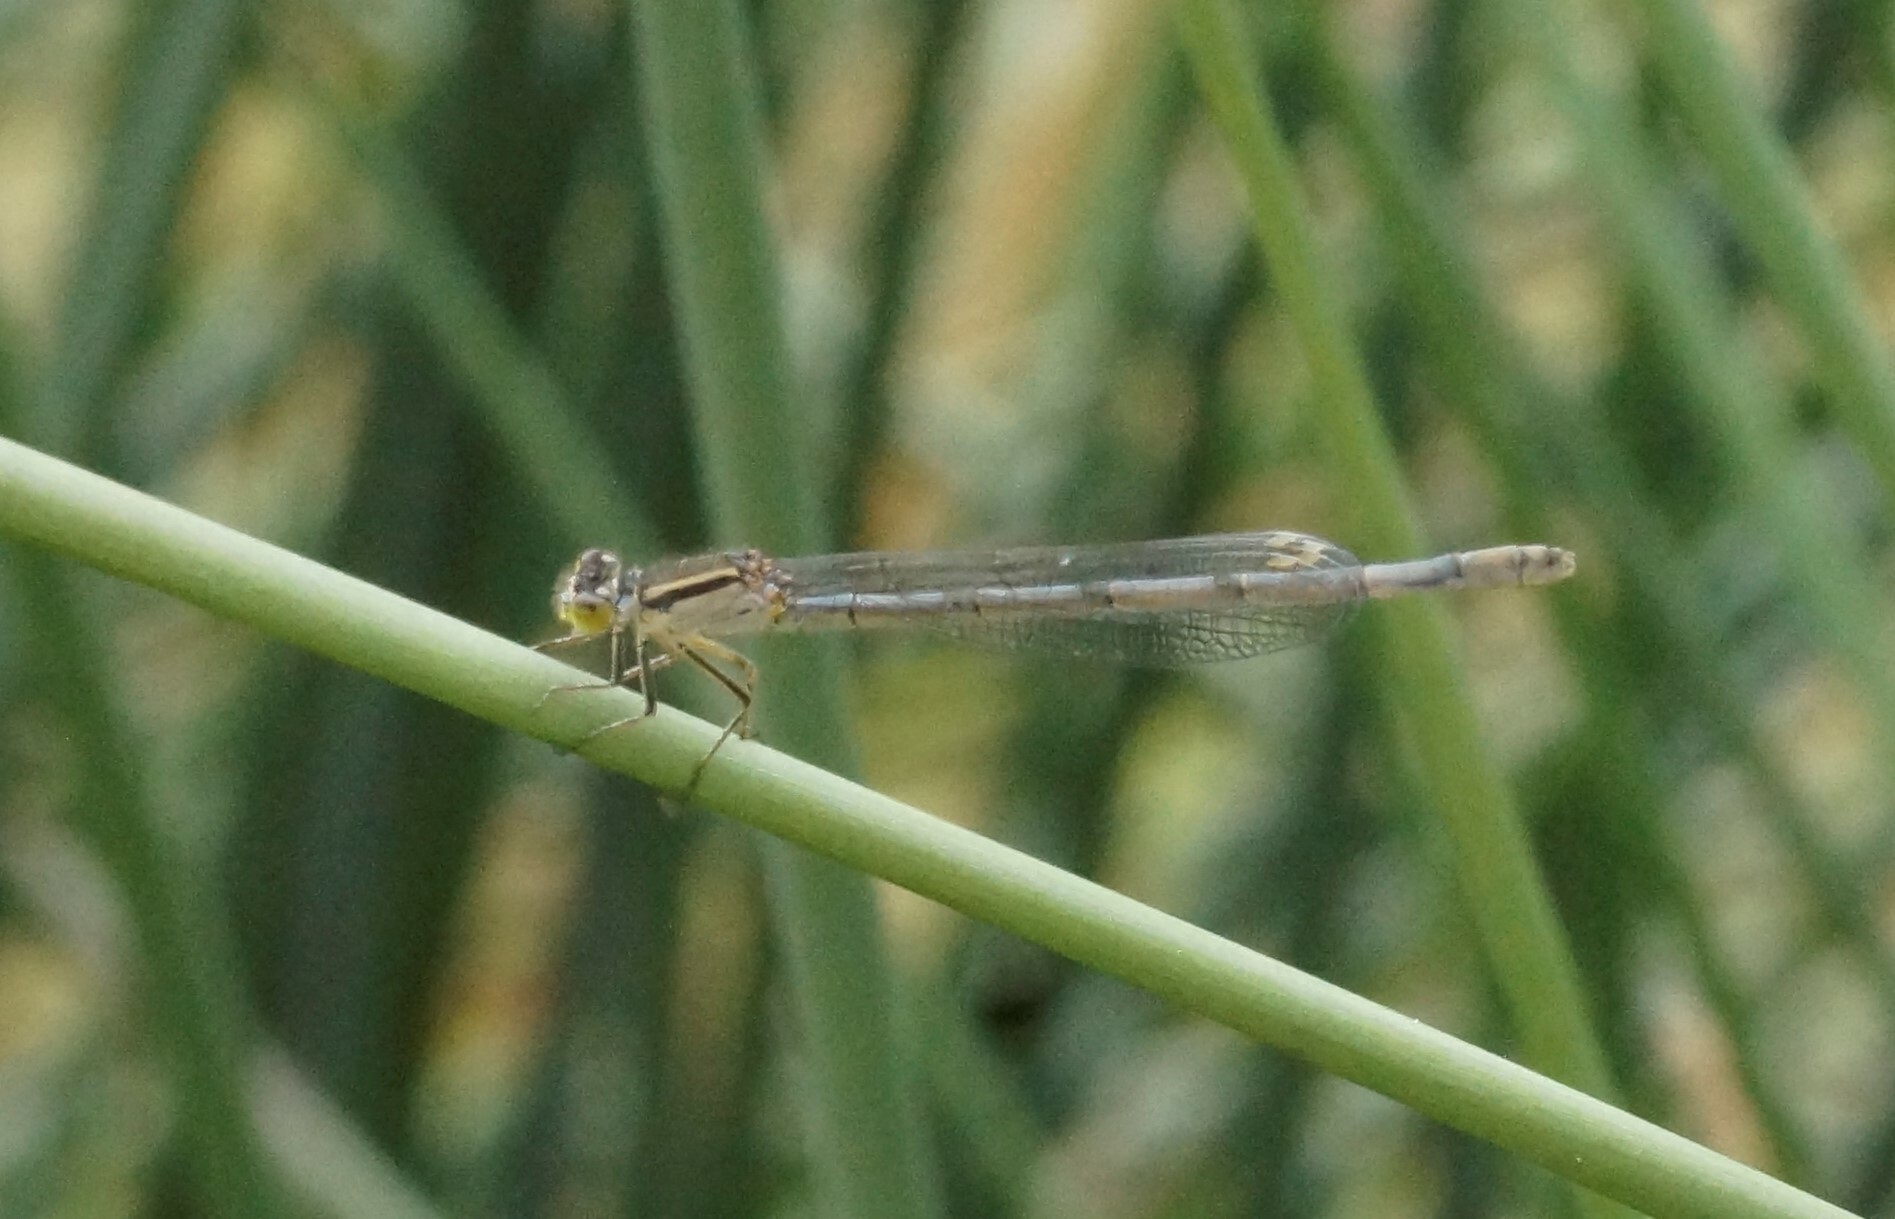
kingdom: Animalia
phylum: Arthropoda
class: Insecta
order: Odonata
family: Coenagrionidae
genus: Ischnura
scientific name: Ischnura heterosticta
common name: Common bluetail
